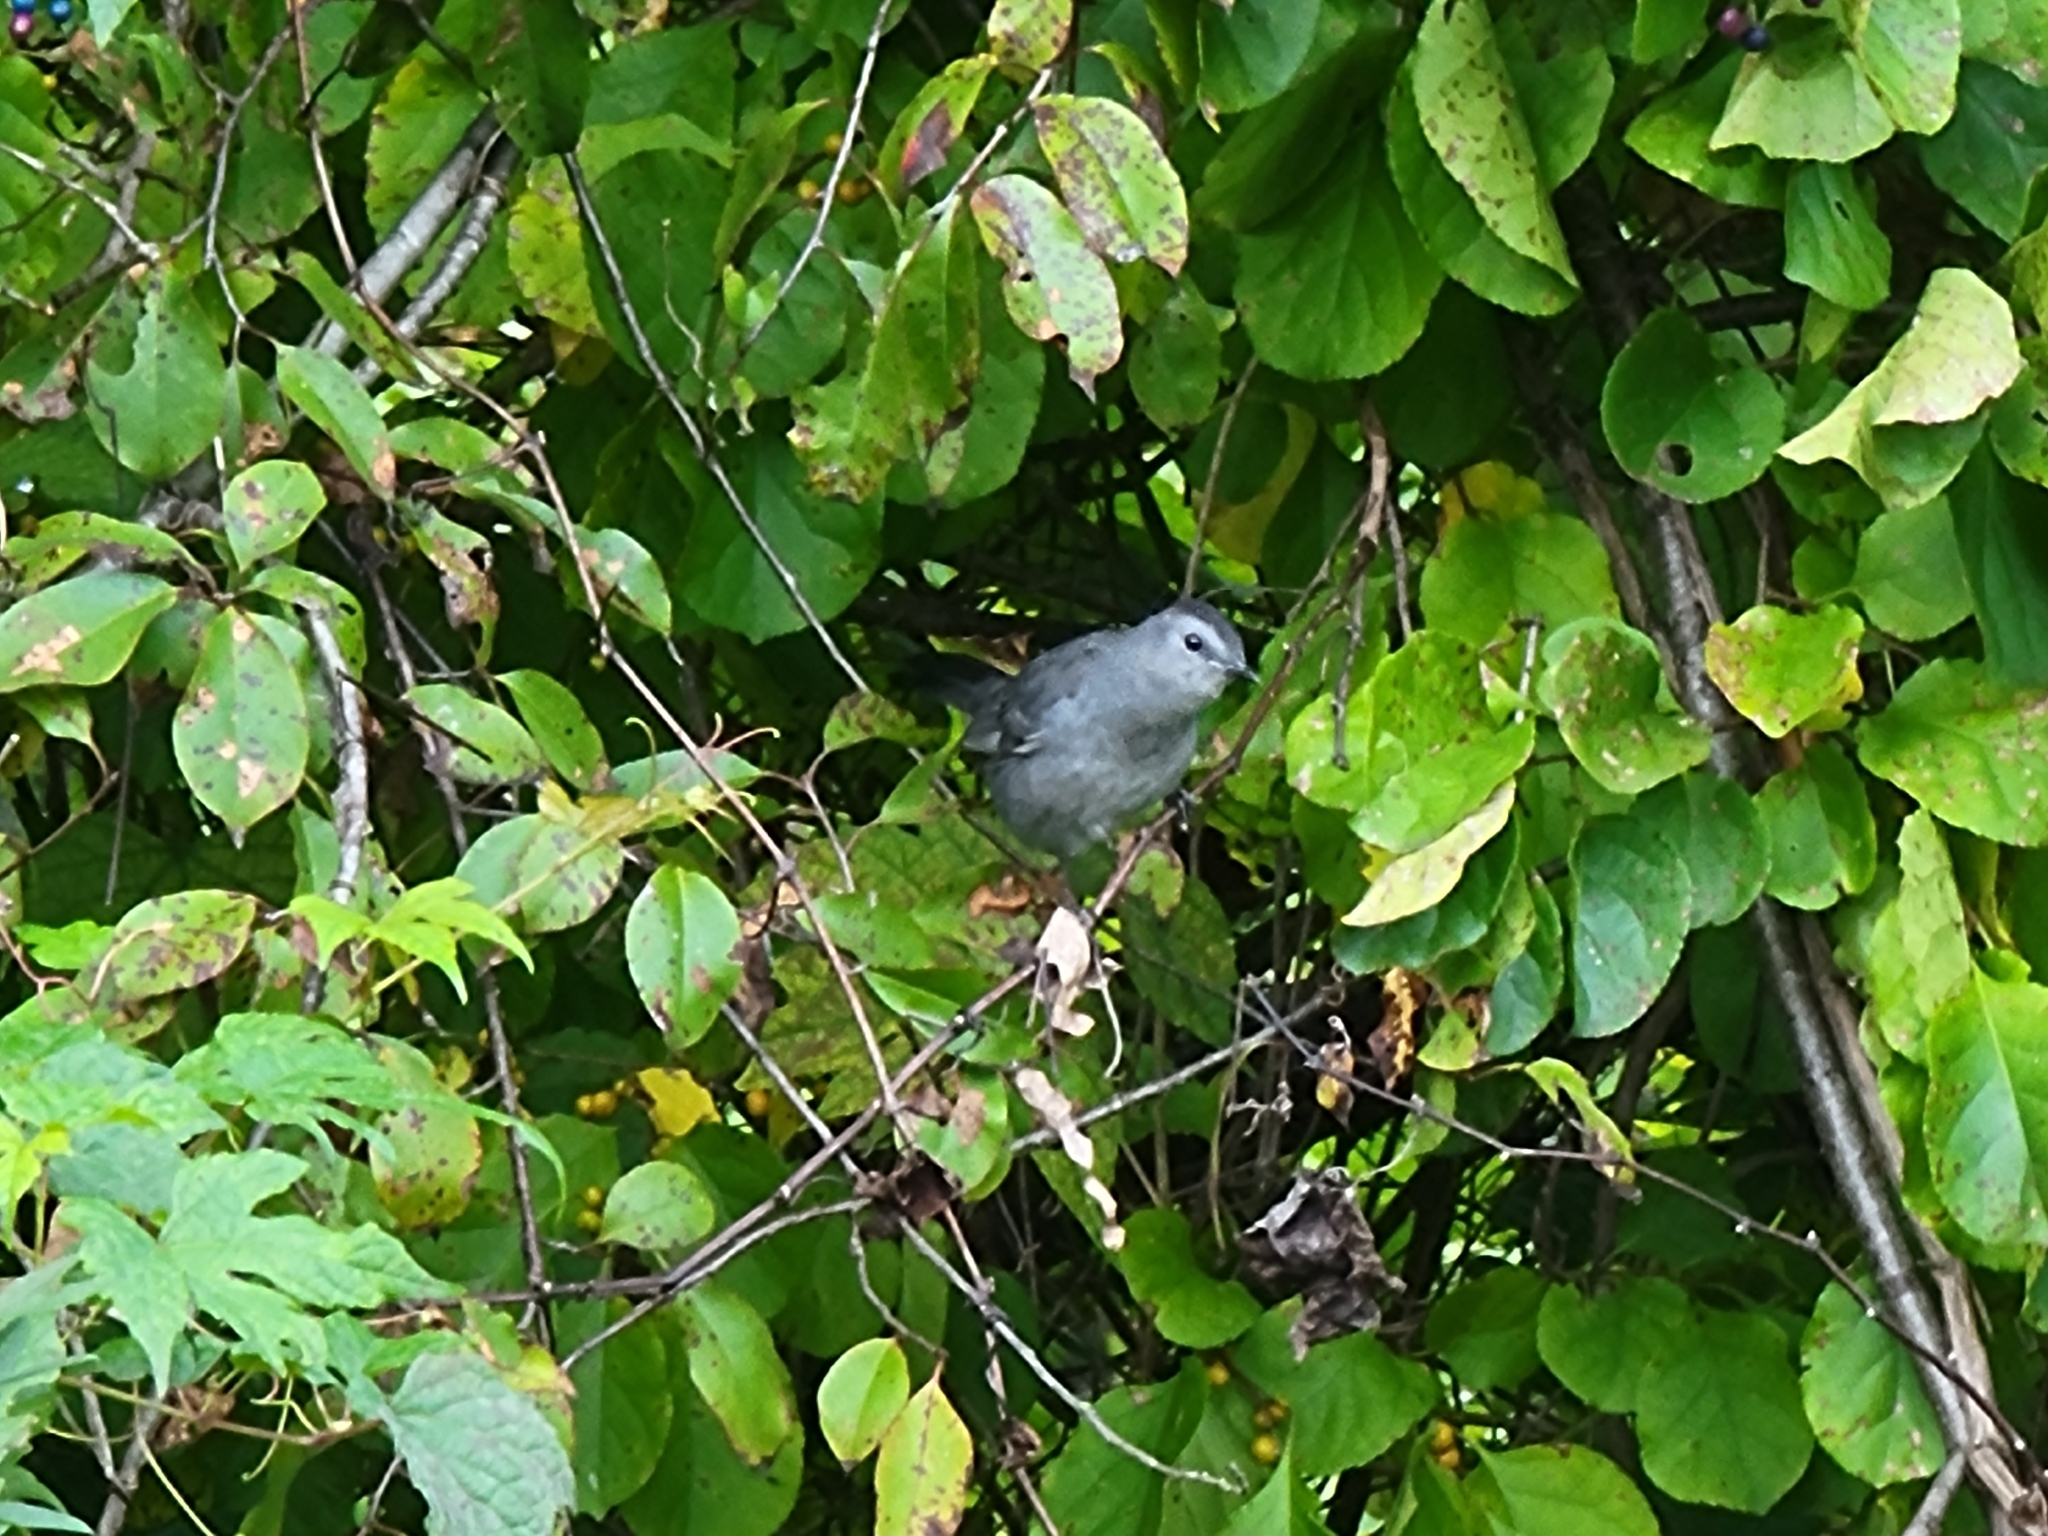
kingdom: Animalia
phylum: Chordata
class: Aves
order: Passeriformes
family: Mimidae
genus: Dumetella
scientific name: Dumetella carolinensis
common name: Gray catbird
